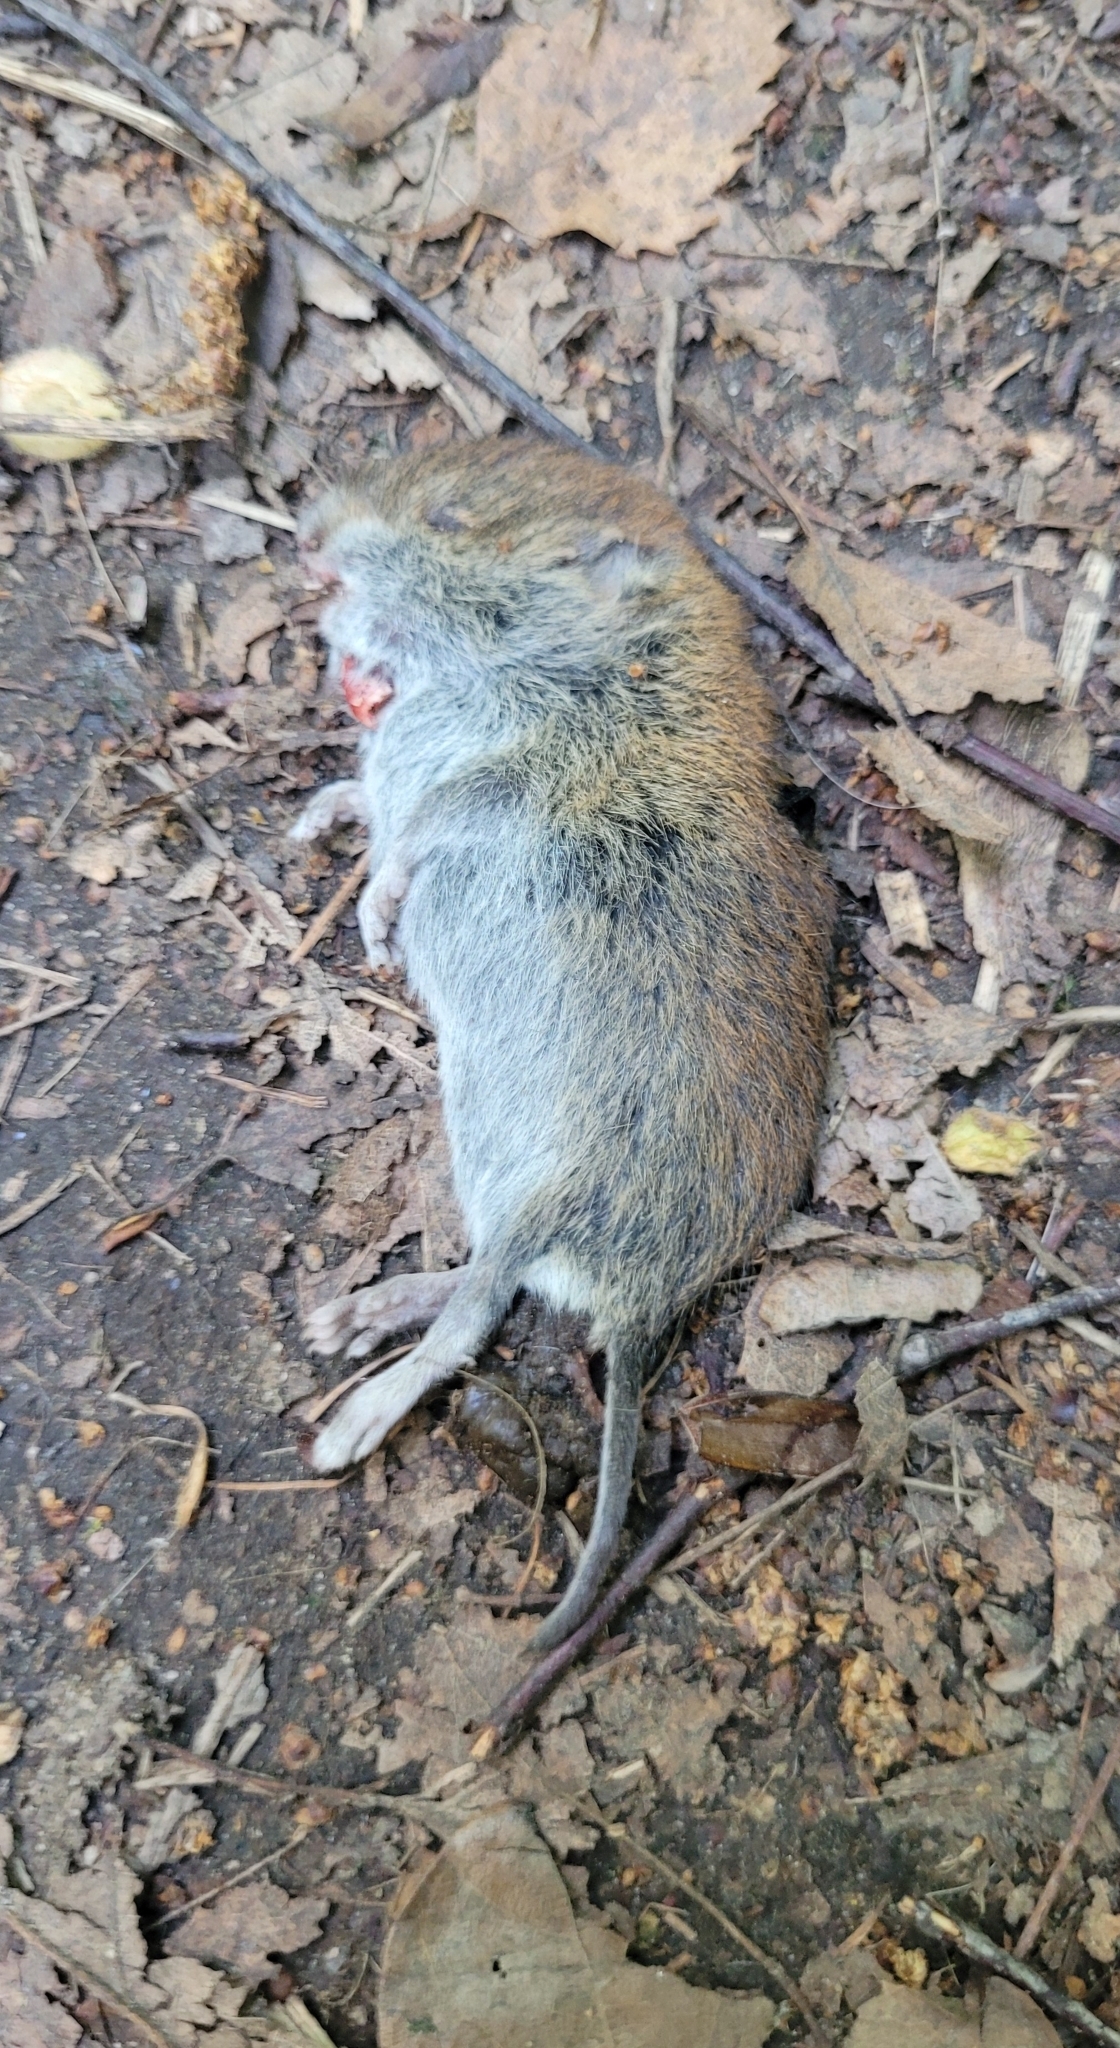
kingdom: Animalia
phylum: Chordata
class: Mammalia
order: Rodentia
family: Cricetidae
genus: Myodes
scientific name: Myodes glareolus
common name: Bank vole
